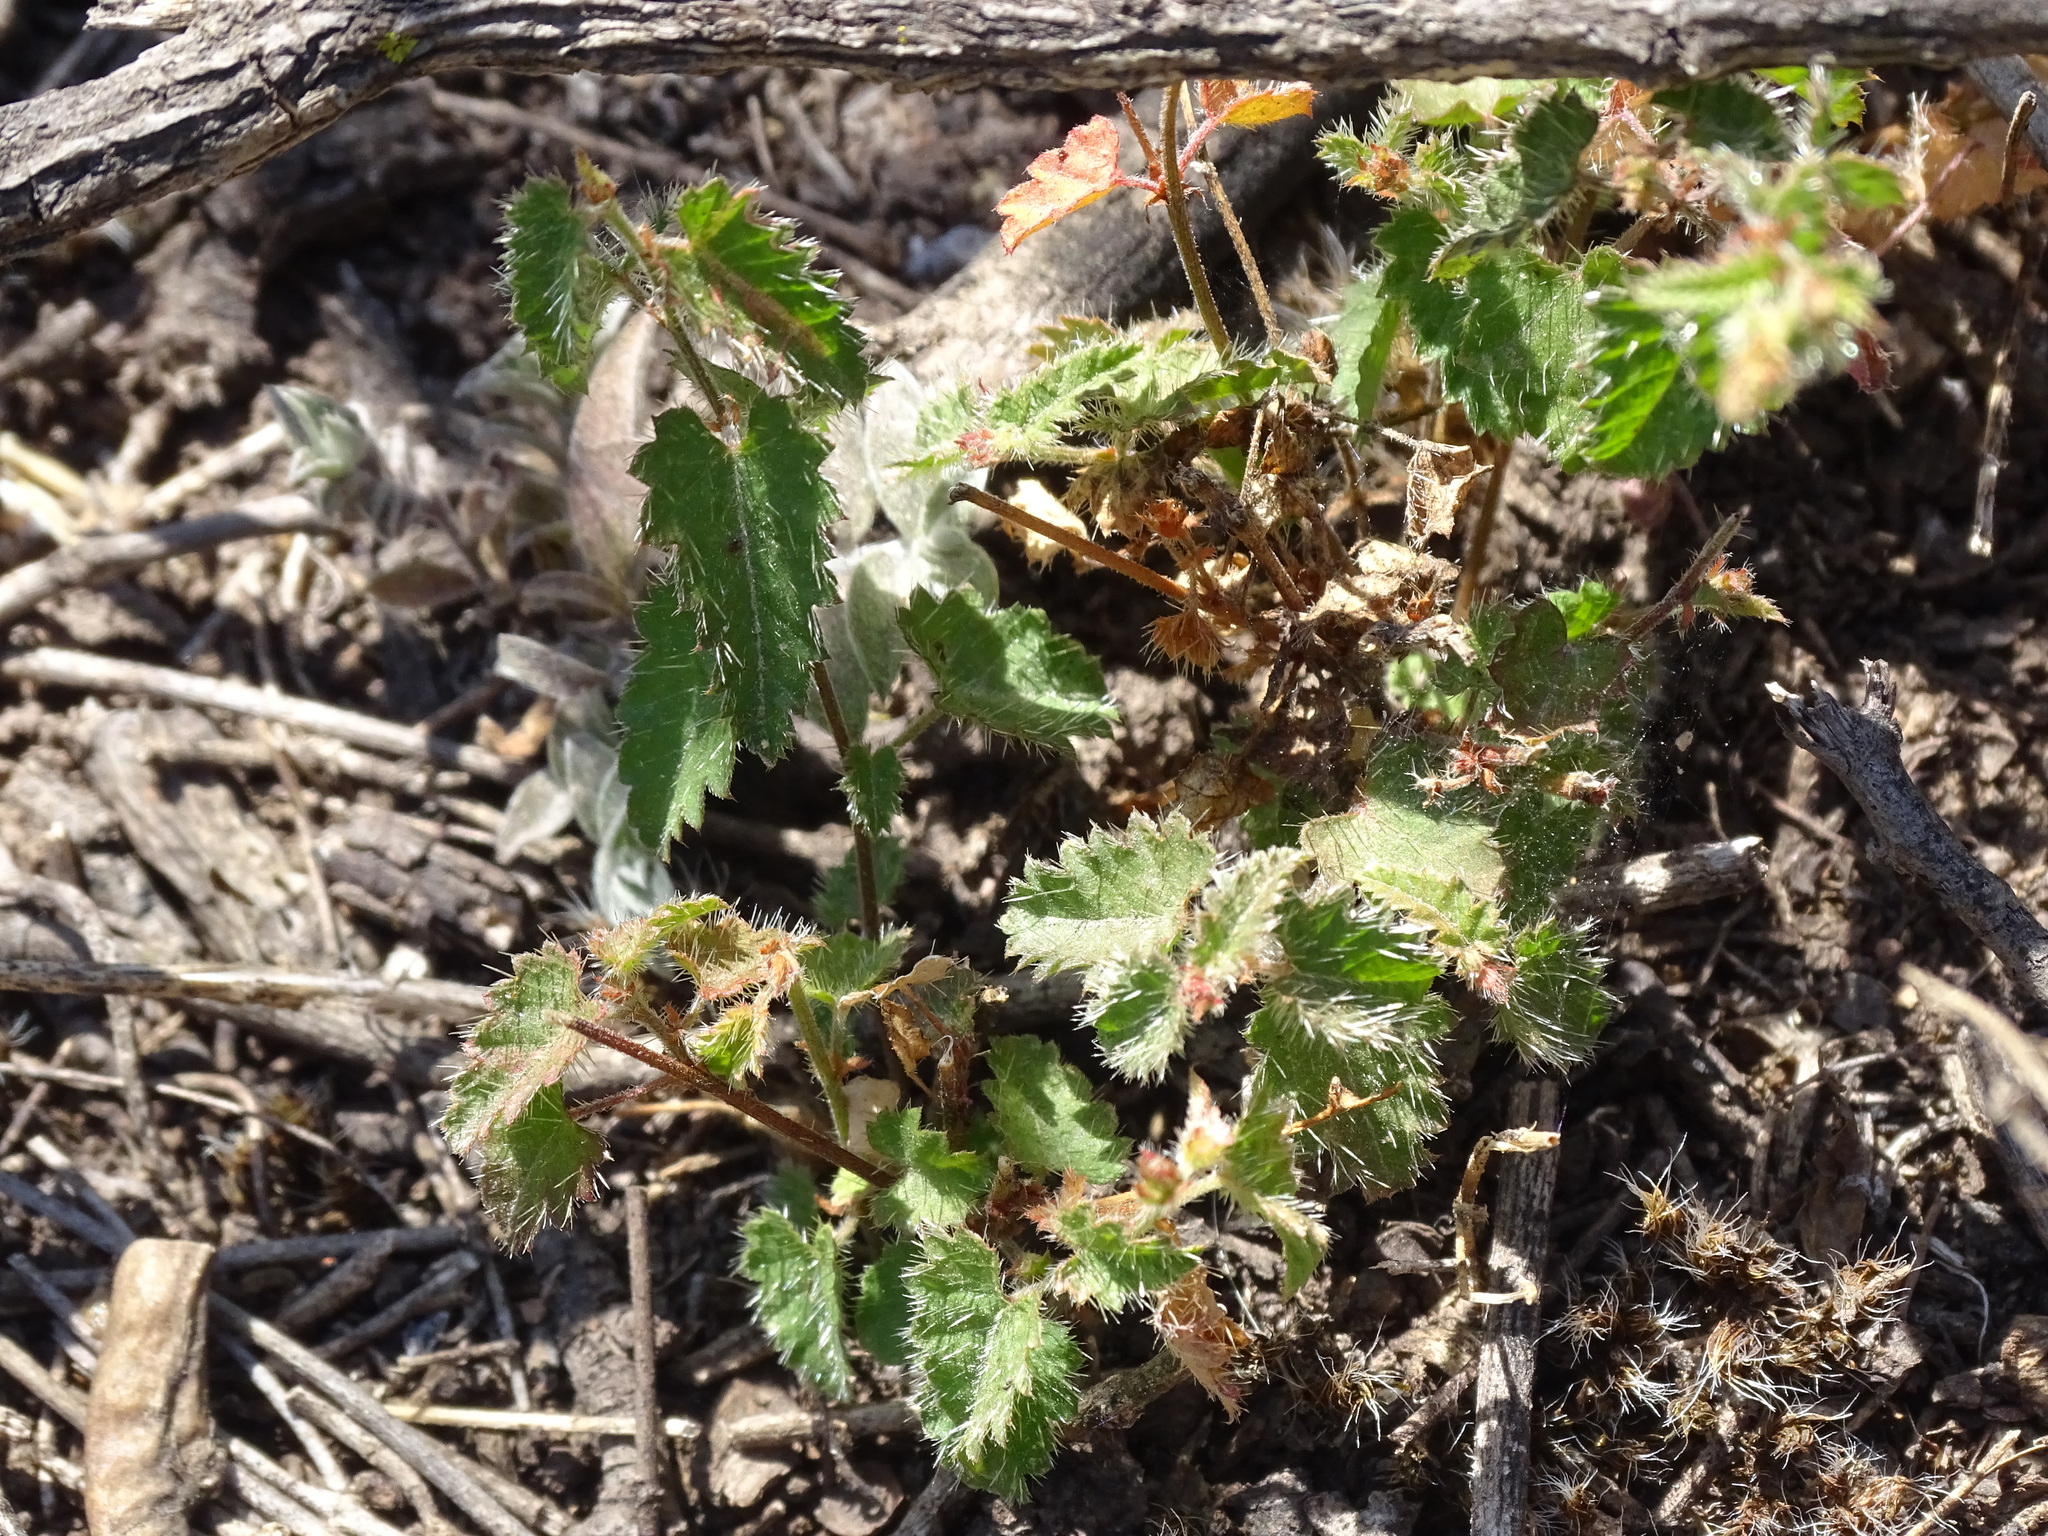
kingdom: Plantae
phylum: Tracheophyta
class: Magnoliopsida
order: Malpighiales
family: Euphorbiaceae
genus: Tragia
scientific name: Tragia nepetifolia
